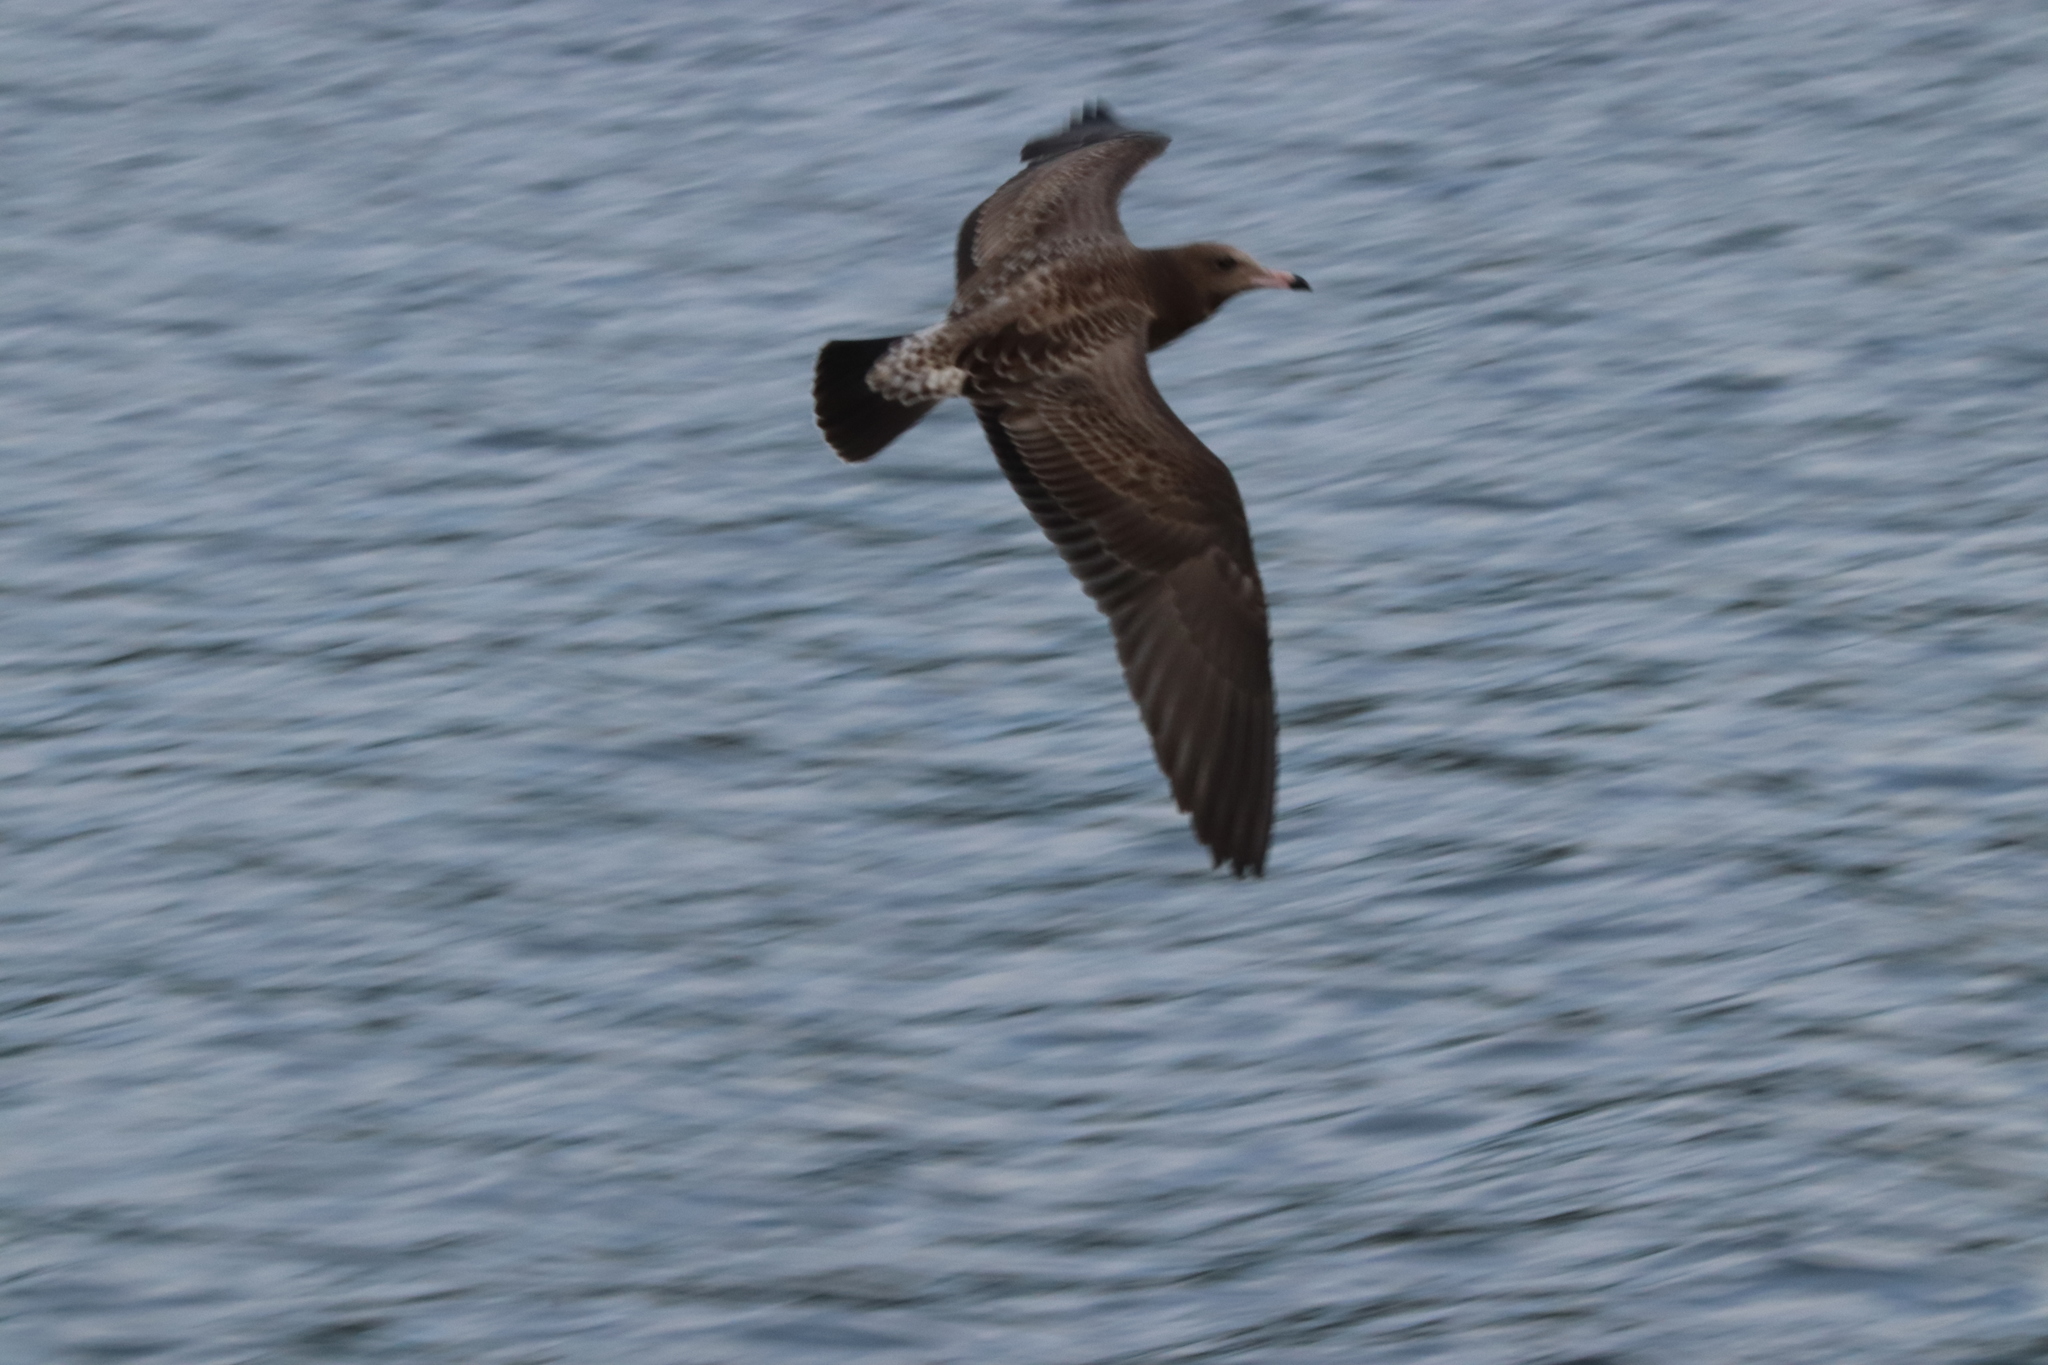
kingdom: Animalia
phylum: Chordata
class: Aves
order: Charadriiformes
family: Laridae
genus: Larus
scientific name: Larus crassirostris
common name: Black-tailed gull
